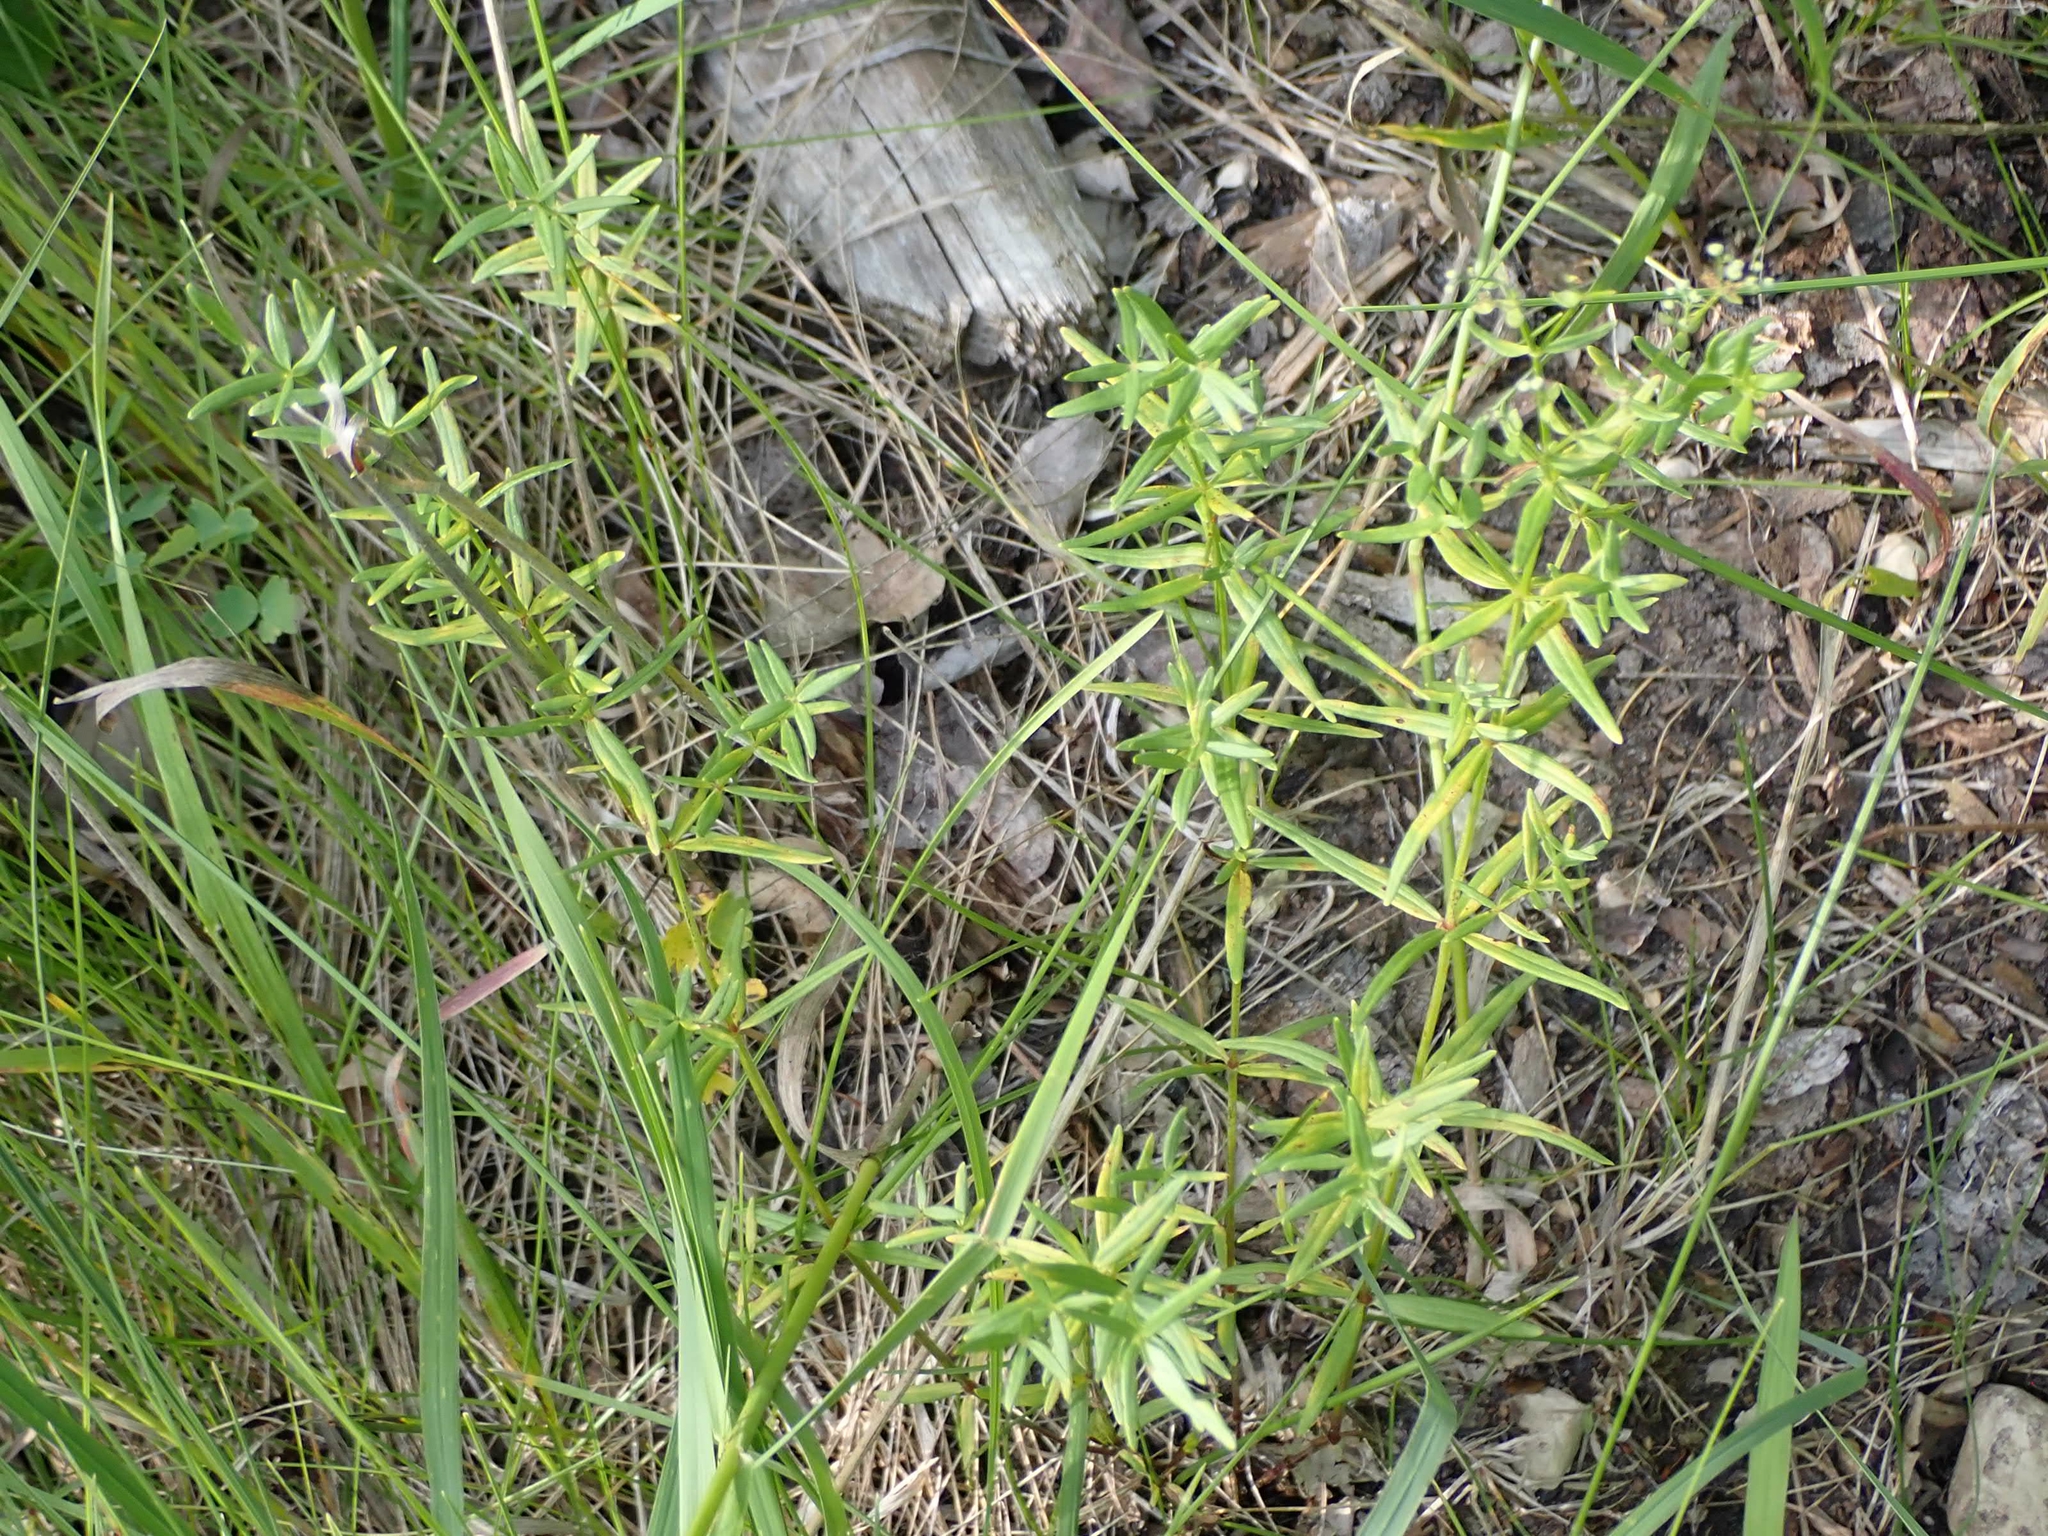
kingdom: Plantae
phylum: Tracheophyta
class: Magnoliopsida
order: Gentianales
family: Rubiaceae
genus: Galium
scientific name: Galium boreale
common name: Northern bedstraw
